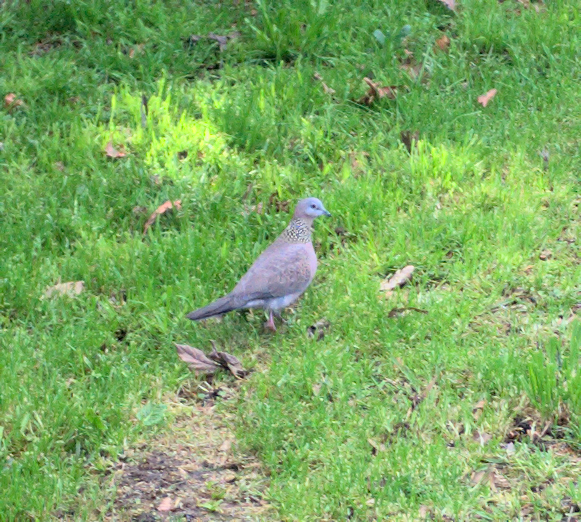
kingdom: Animalia
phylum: Chordata
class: Aves
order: Columbiformes
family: Columbidae
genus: Spilopelia
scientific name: Spilopelia chinensis
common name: Spotted dove
